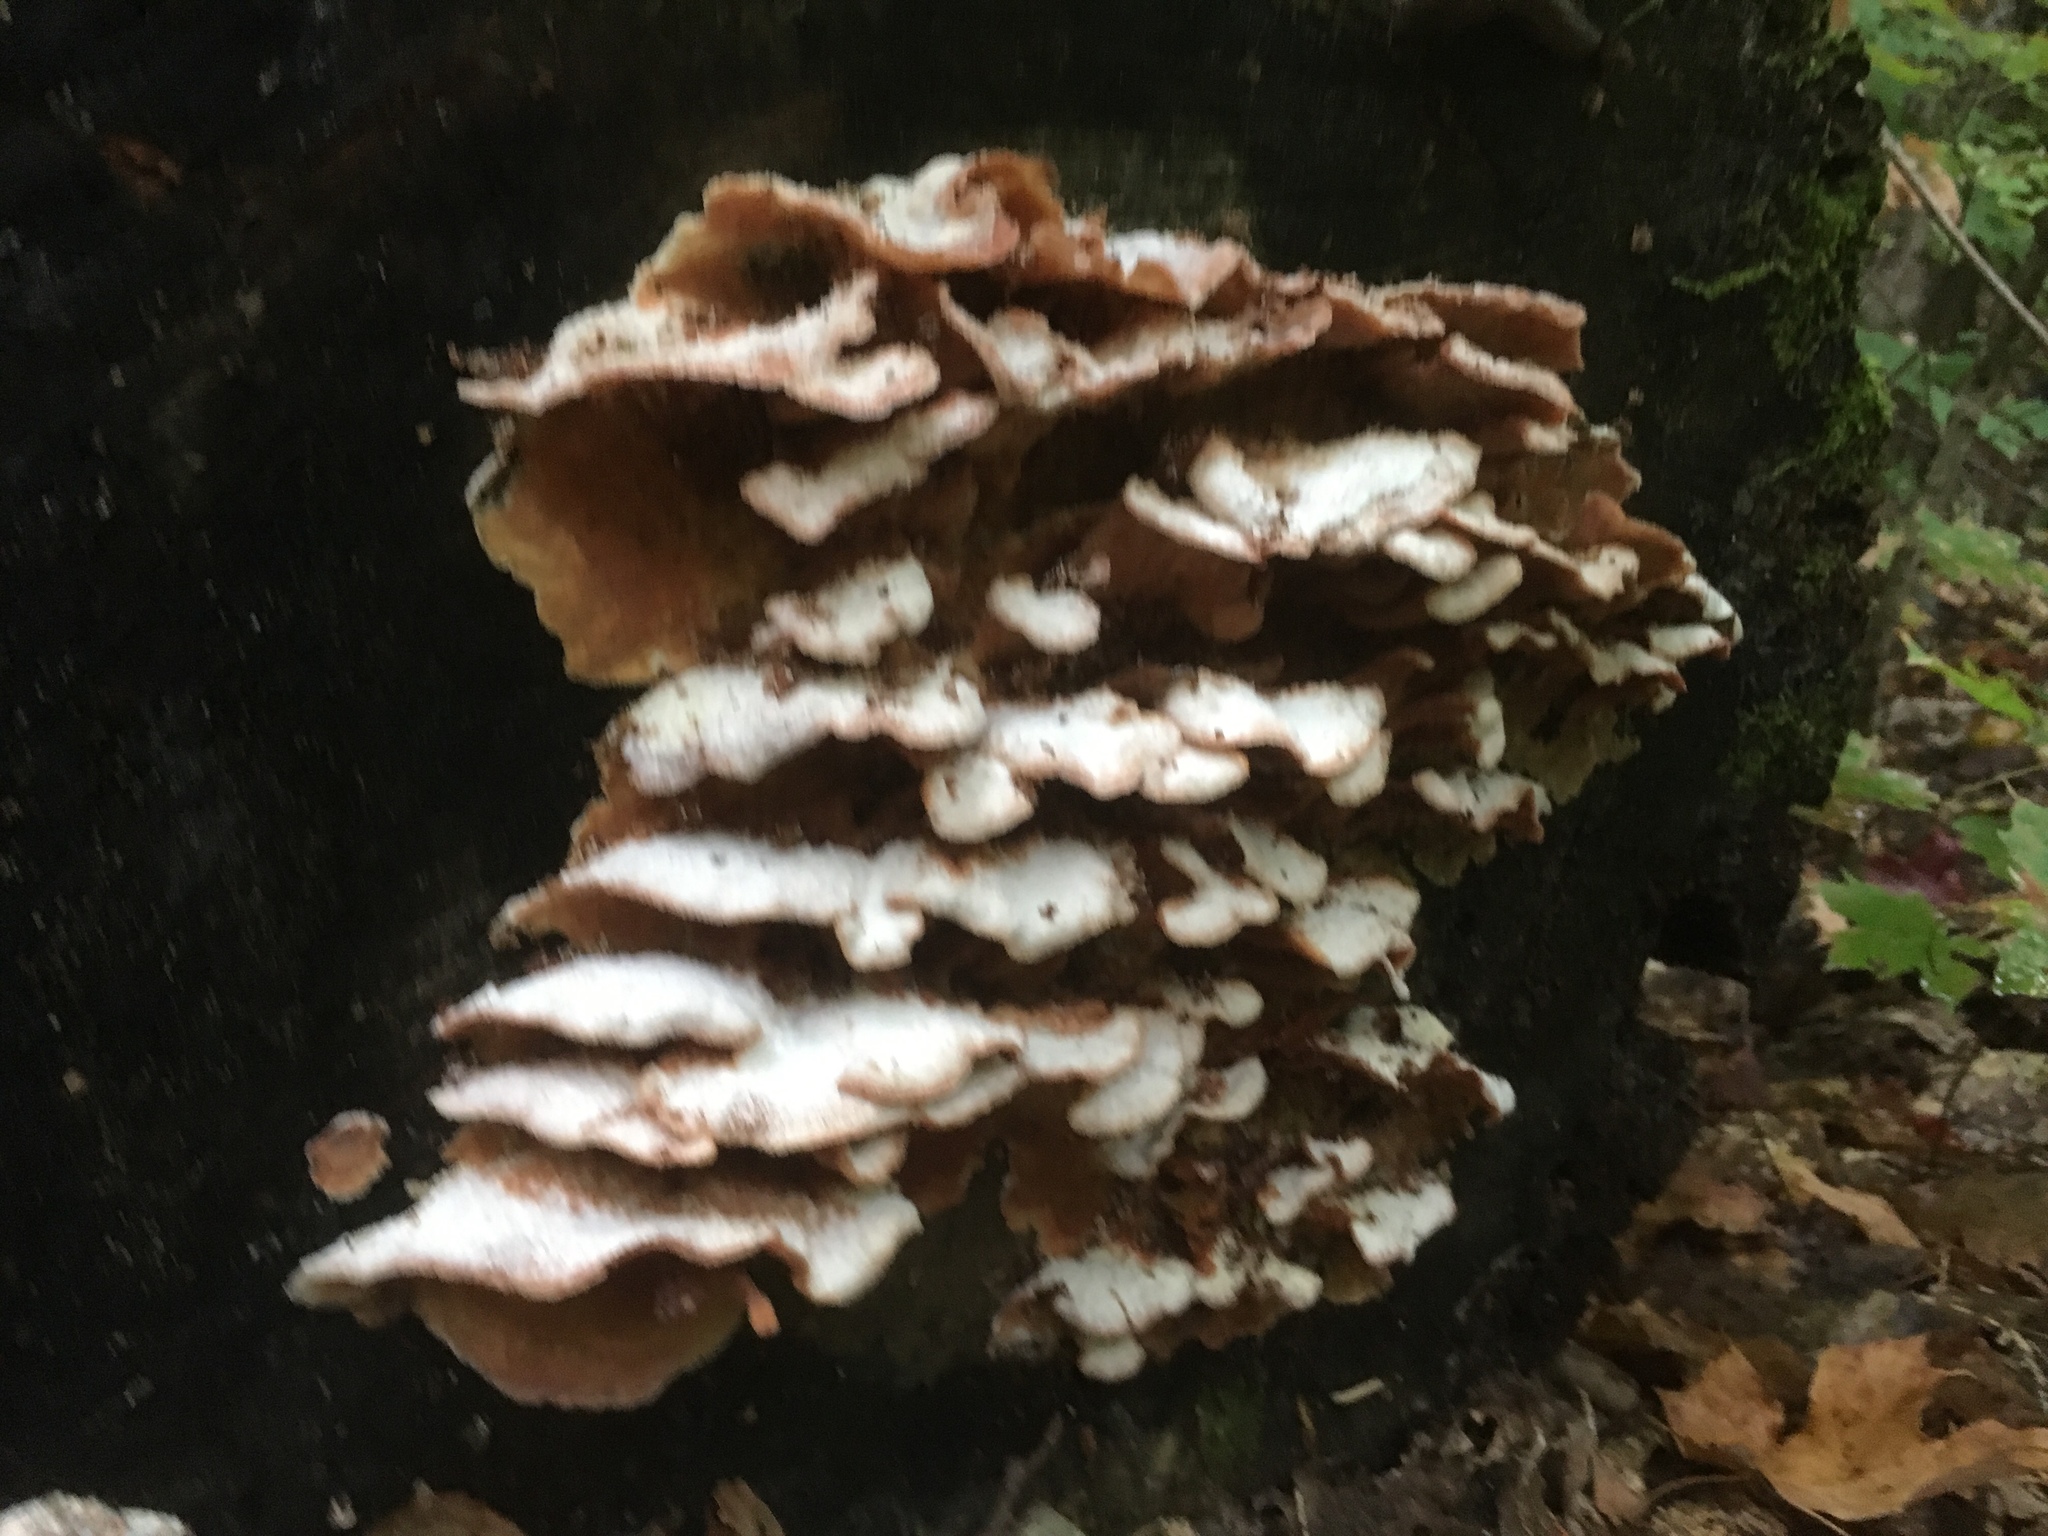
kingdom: Fungi
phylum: Basidiomycota
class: Agaricomycetes
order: Polyporales
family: Meruliaceae
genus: Phlebia
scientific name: Phlebia tremellosa
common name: Jelly rot
